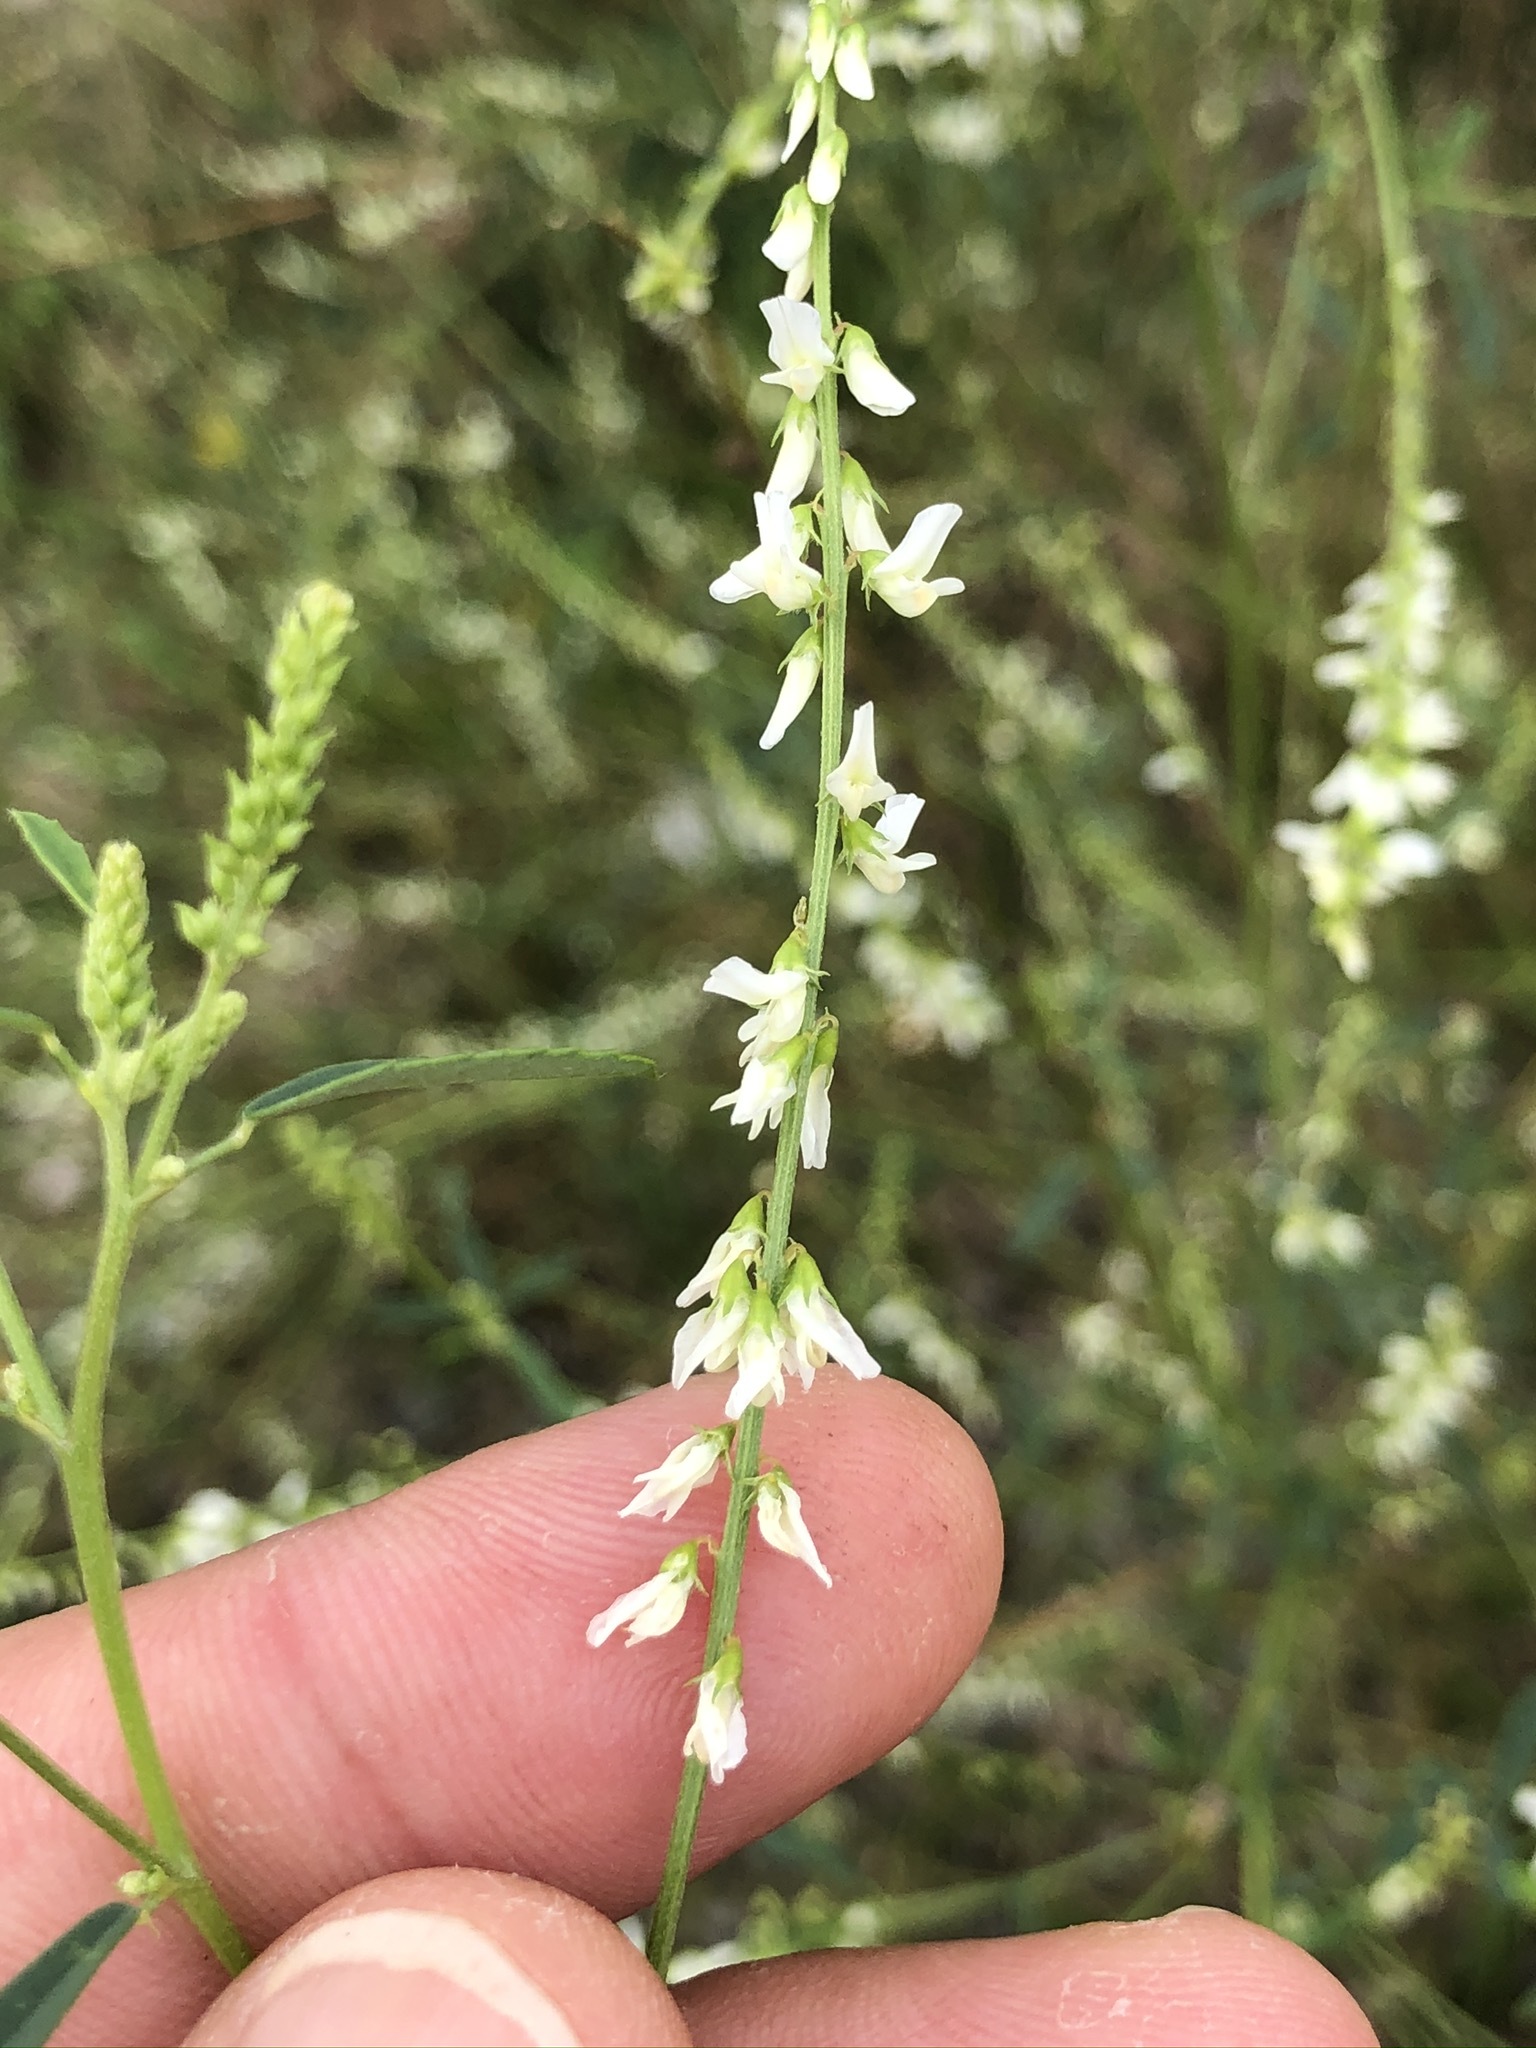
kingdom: Plantae
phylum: Tracheophyta
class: Magnoliopsida
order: Fabales
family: Fabaceae
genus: Melilotus
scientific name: Melilotus albus
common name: White melilot
